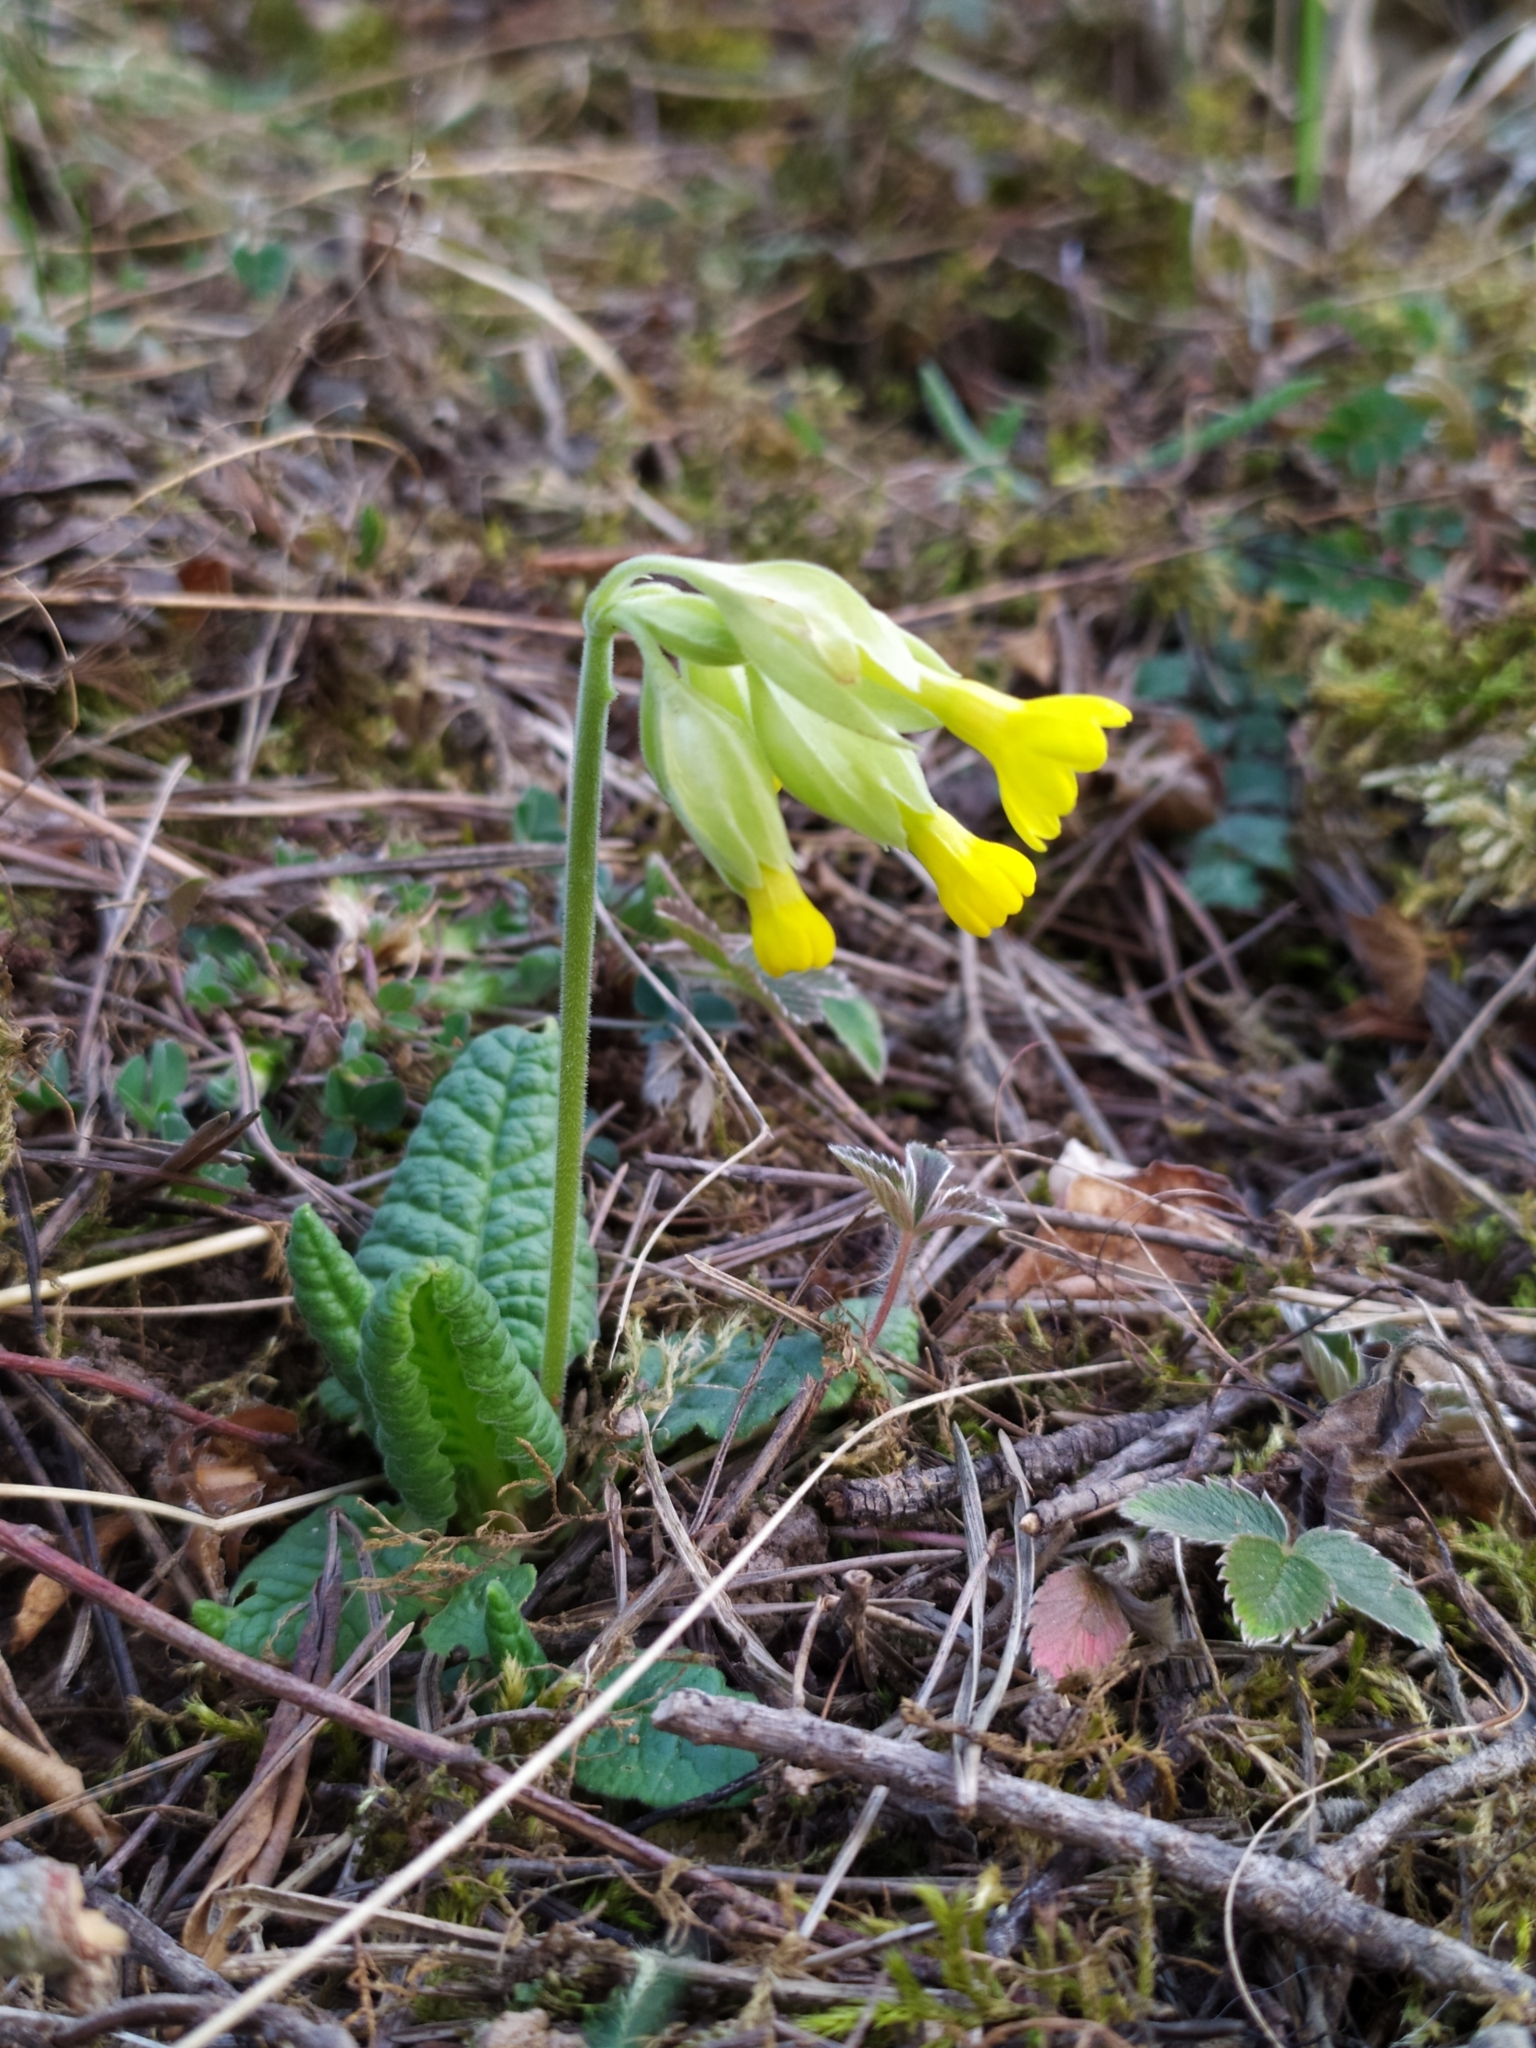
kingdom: Plantae
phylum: Tracheophyta
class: Magnoliopsida
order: Ericales
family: Primulaceae
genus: Primula
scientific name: Primula veris
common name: Cowslip
